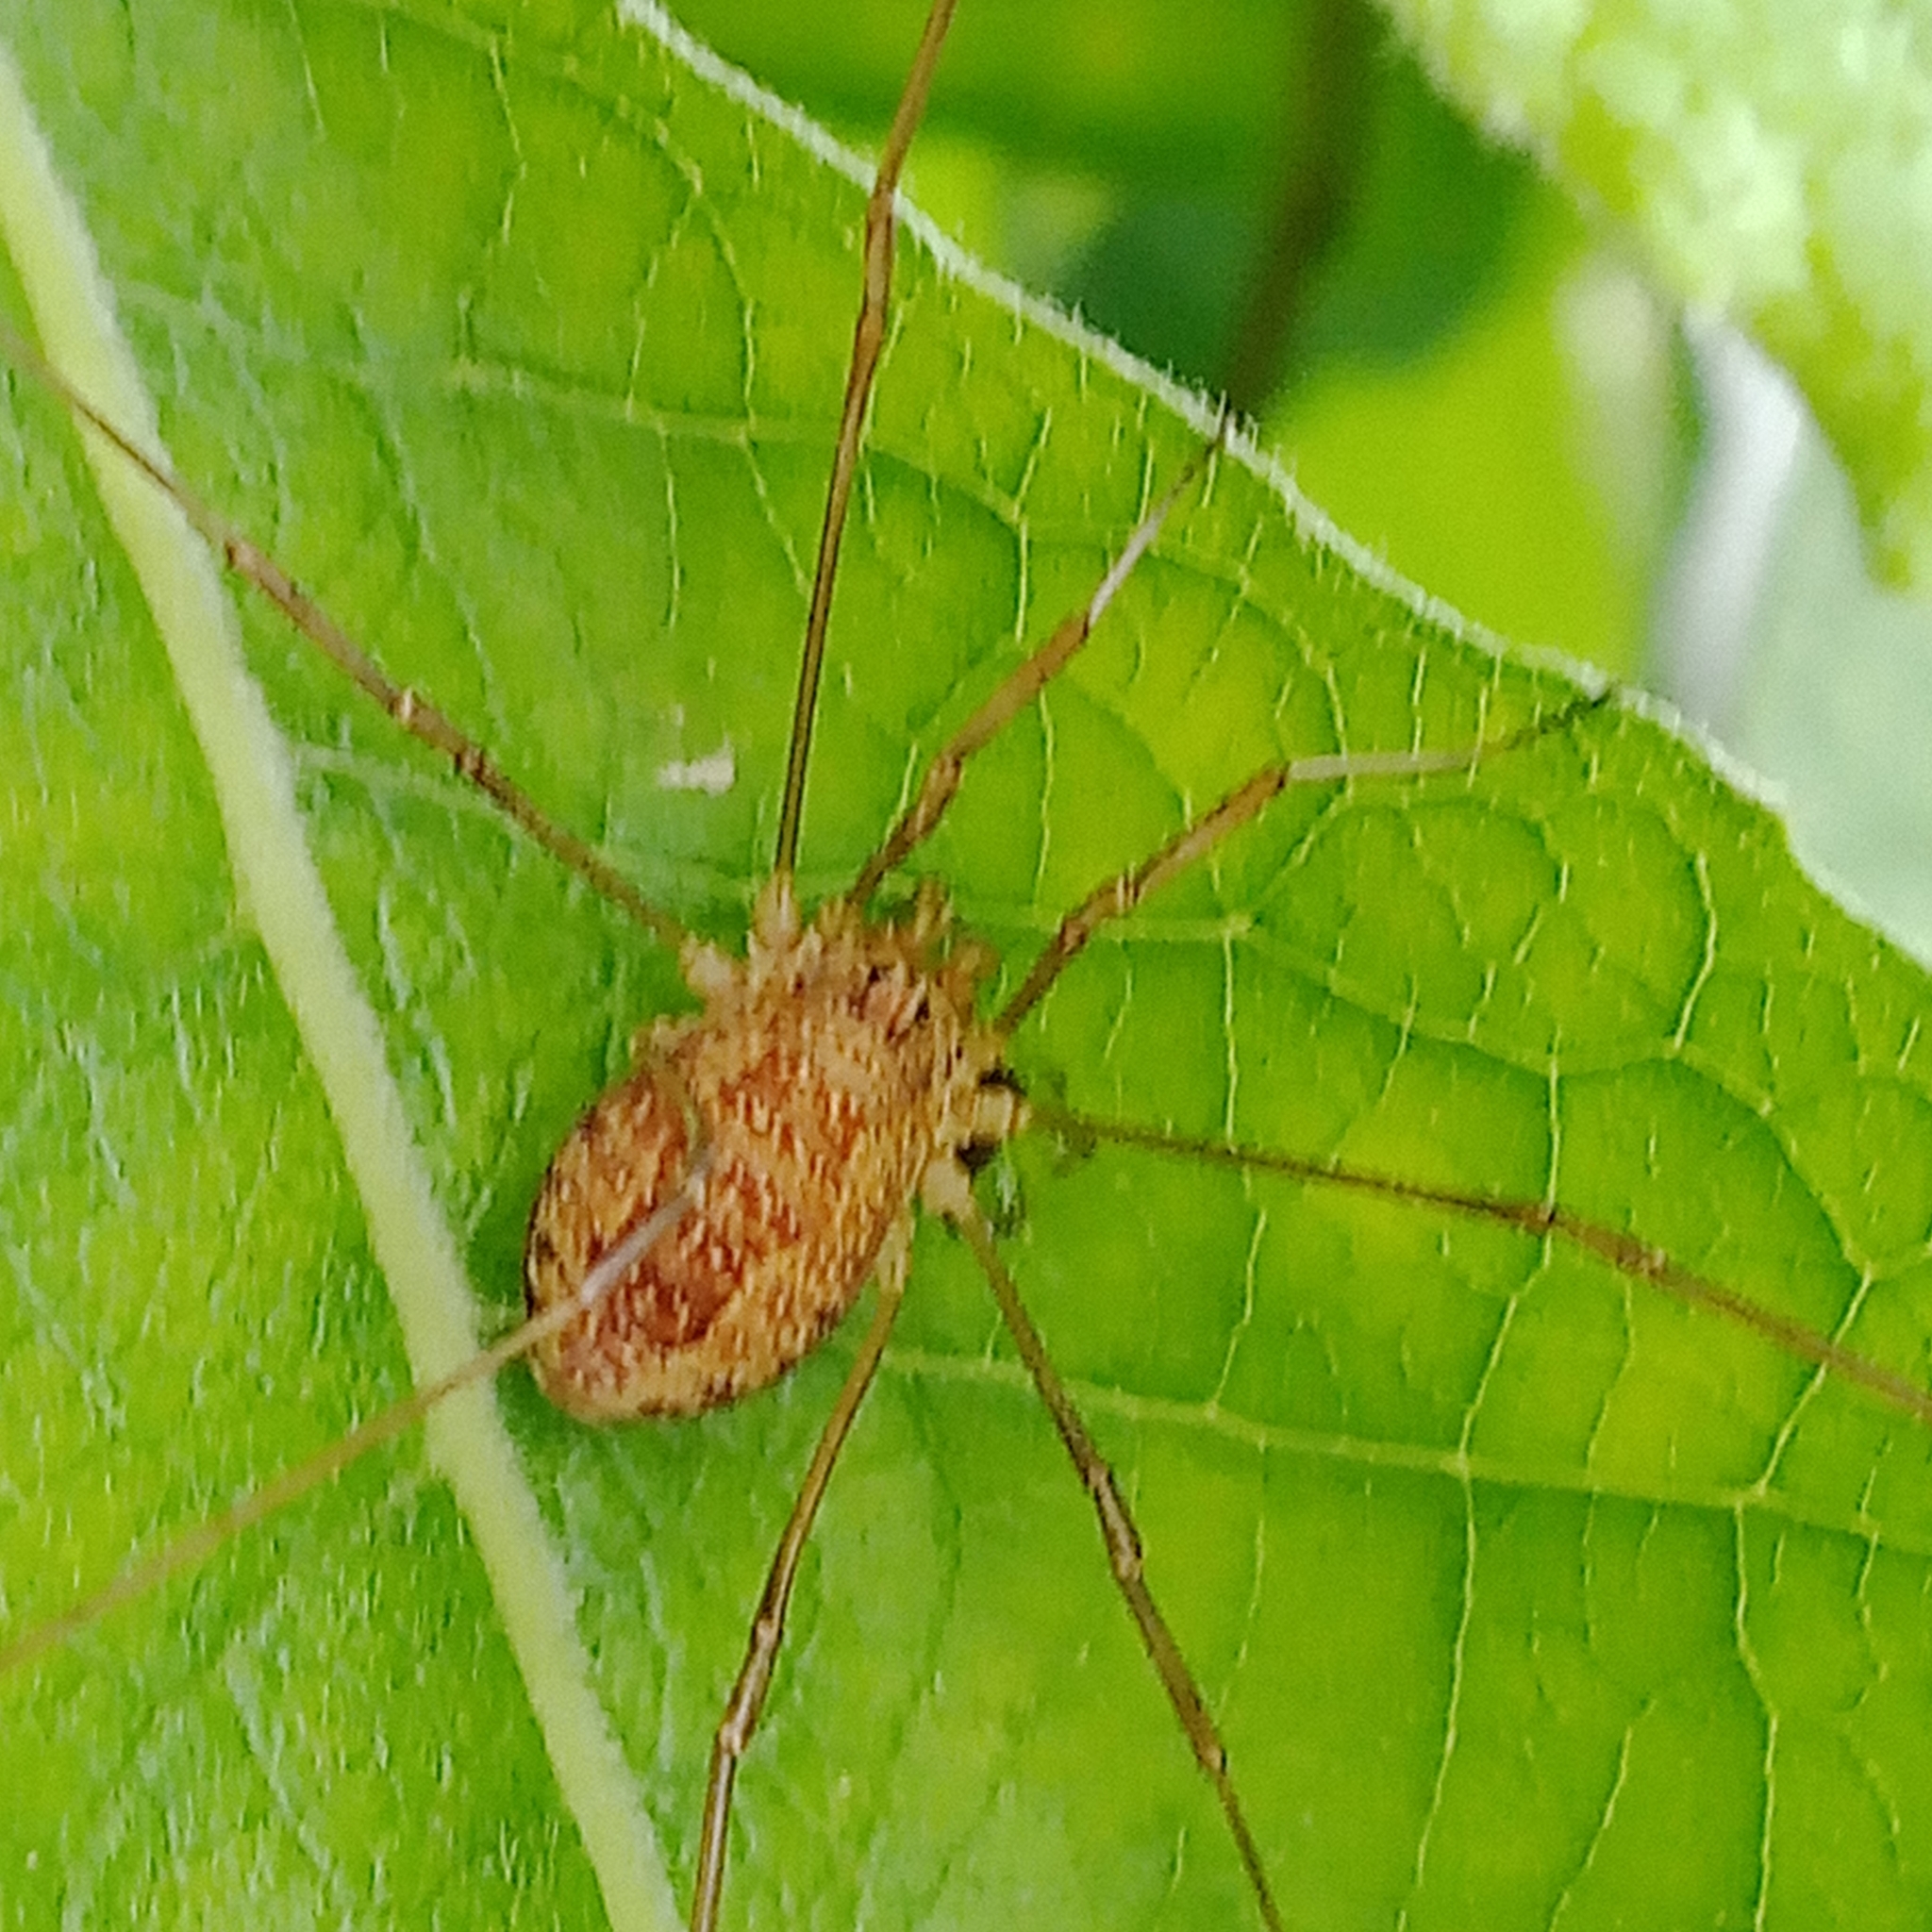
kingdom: Animalia
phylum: Arthropoda
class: Arachnida
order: Opiliones
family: Phalangiidae
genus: Rilaena
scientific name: Rilaena triangularis
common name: Spring harvestman
